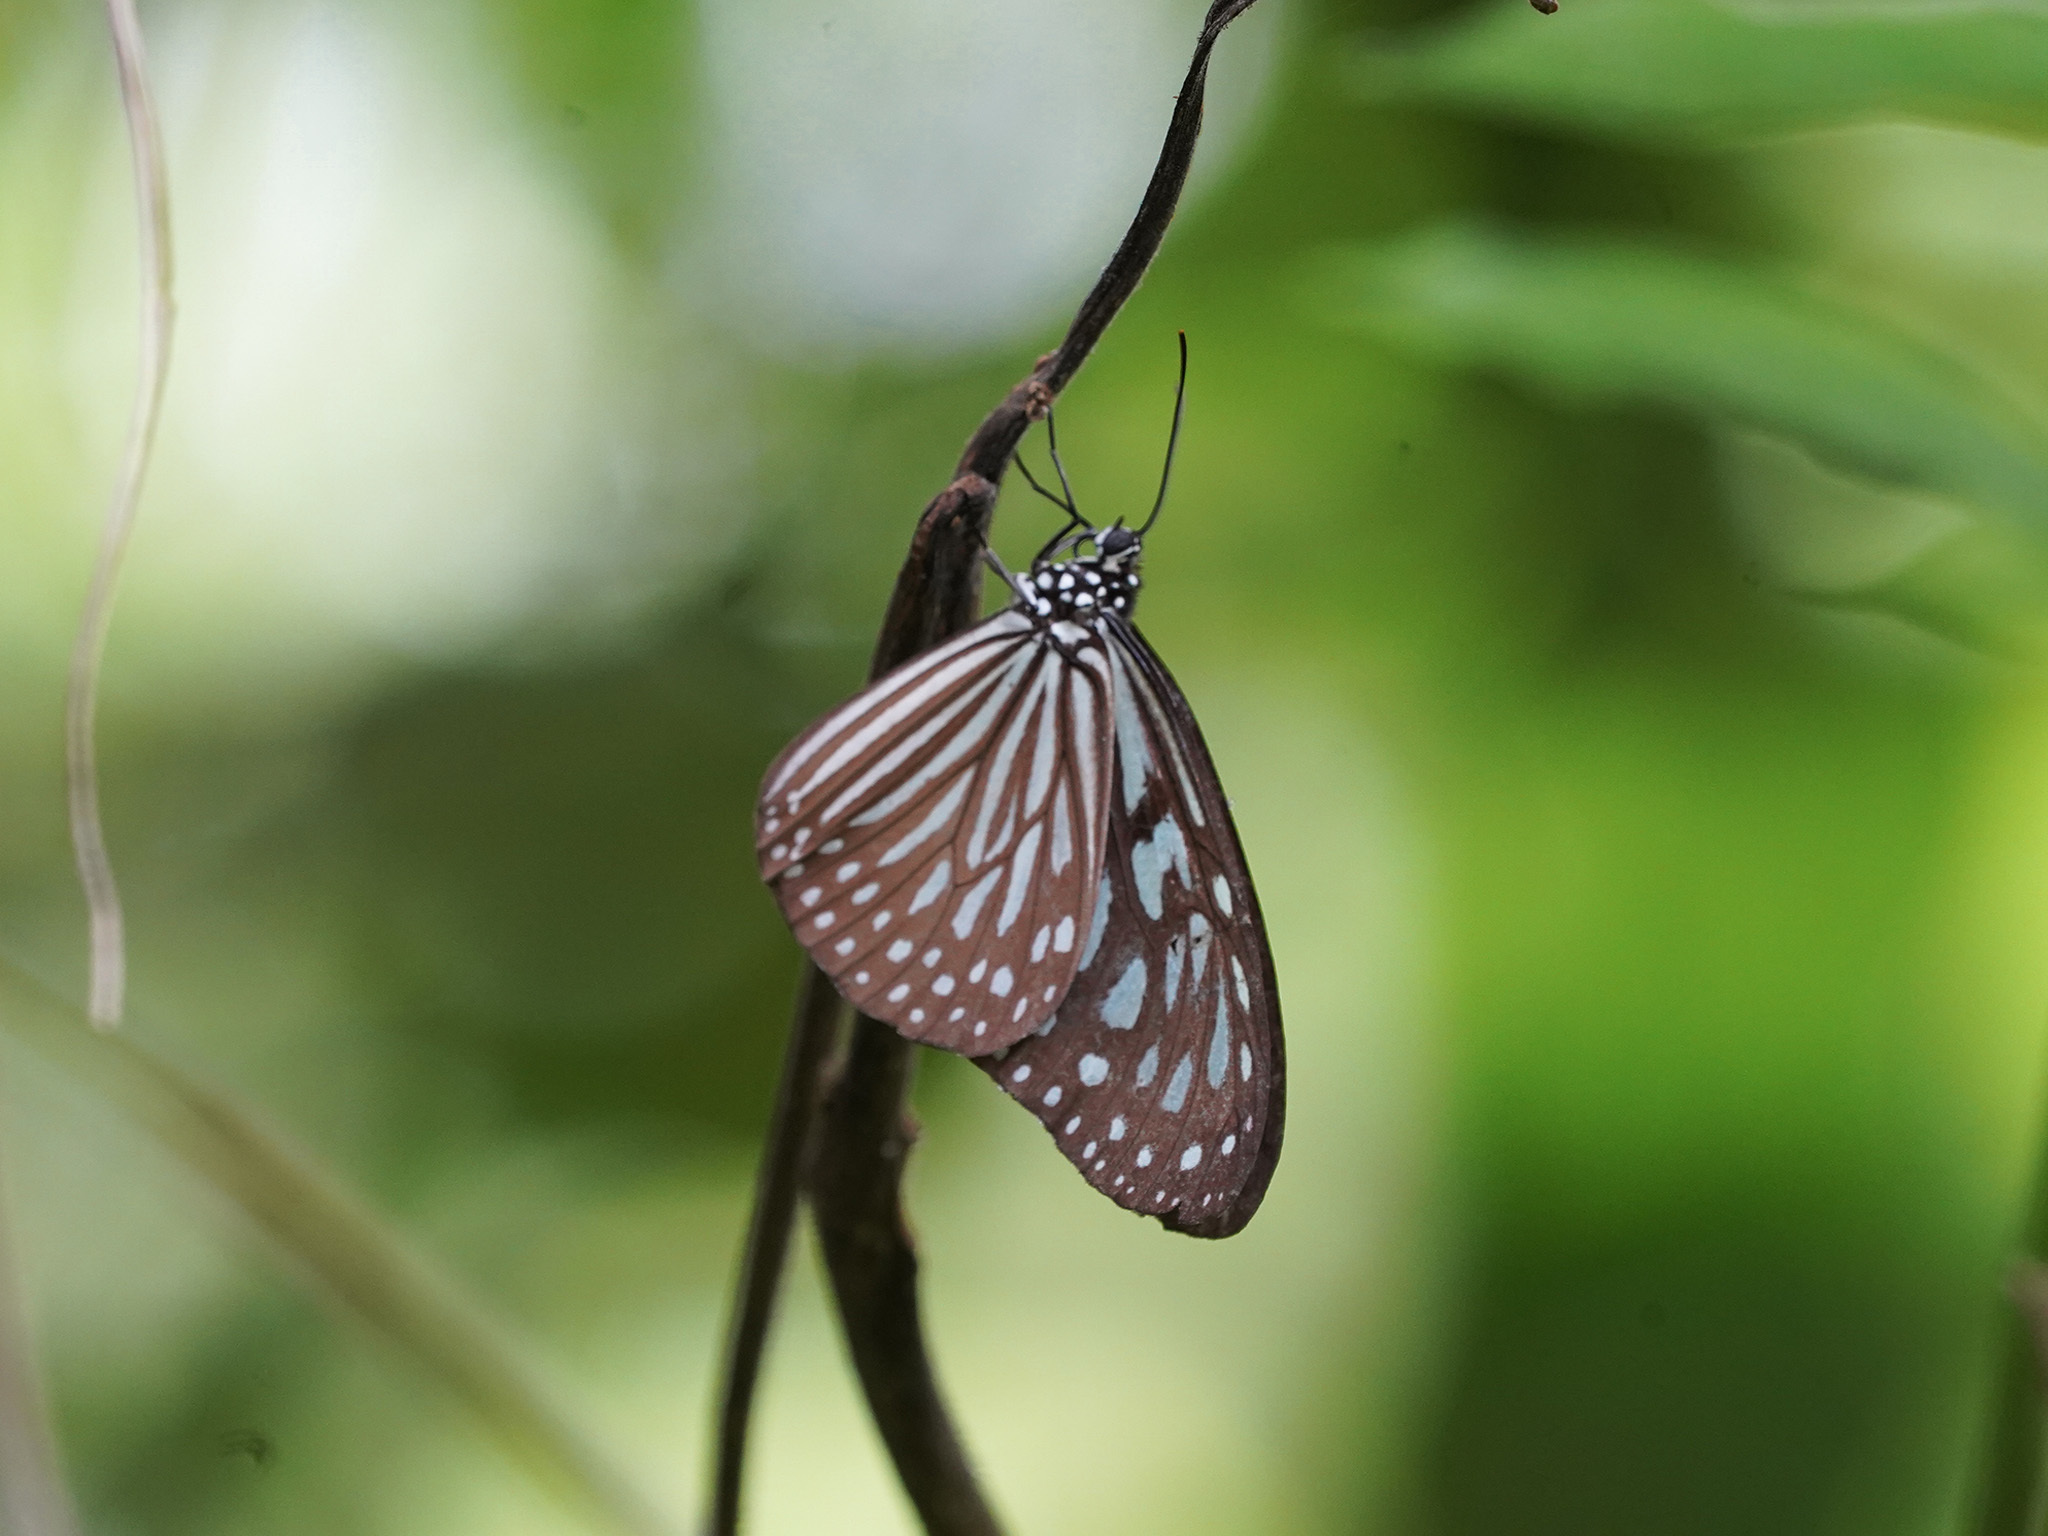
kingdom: Animalia
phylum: Arthropoda
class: Insecta
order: Lepidoptera
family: Nymphalidae
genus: Ideopsis
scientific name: Ideopsis vulgaris
